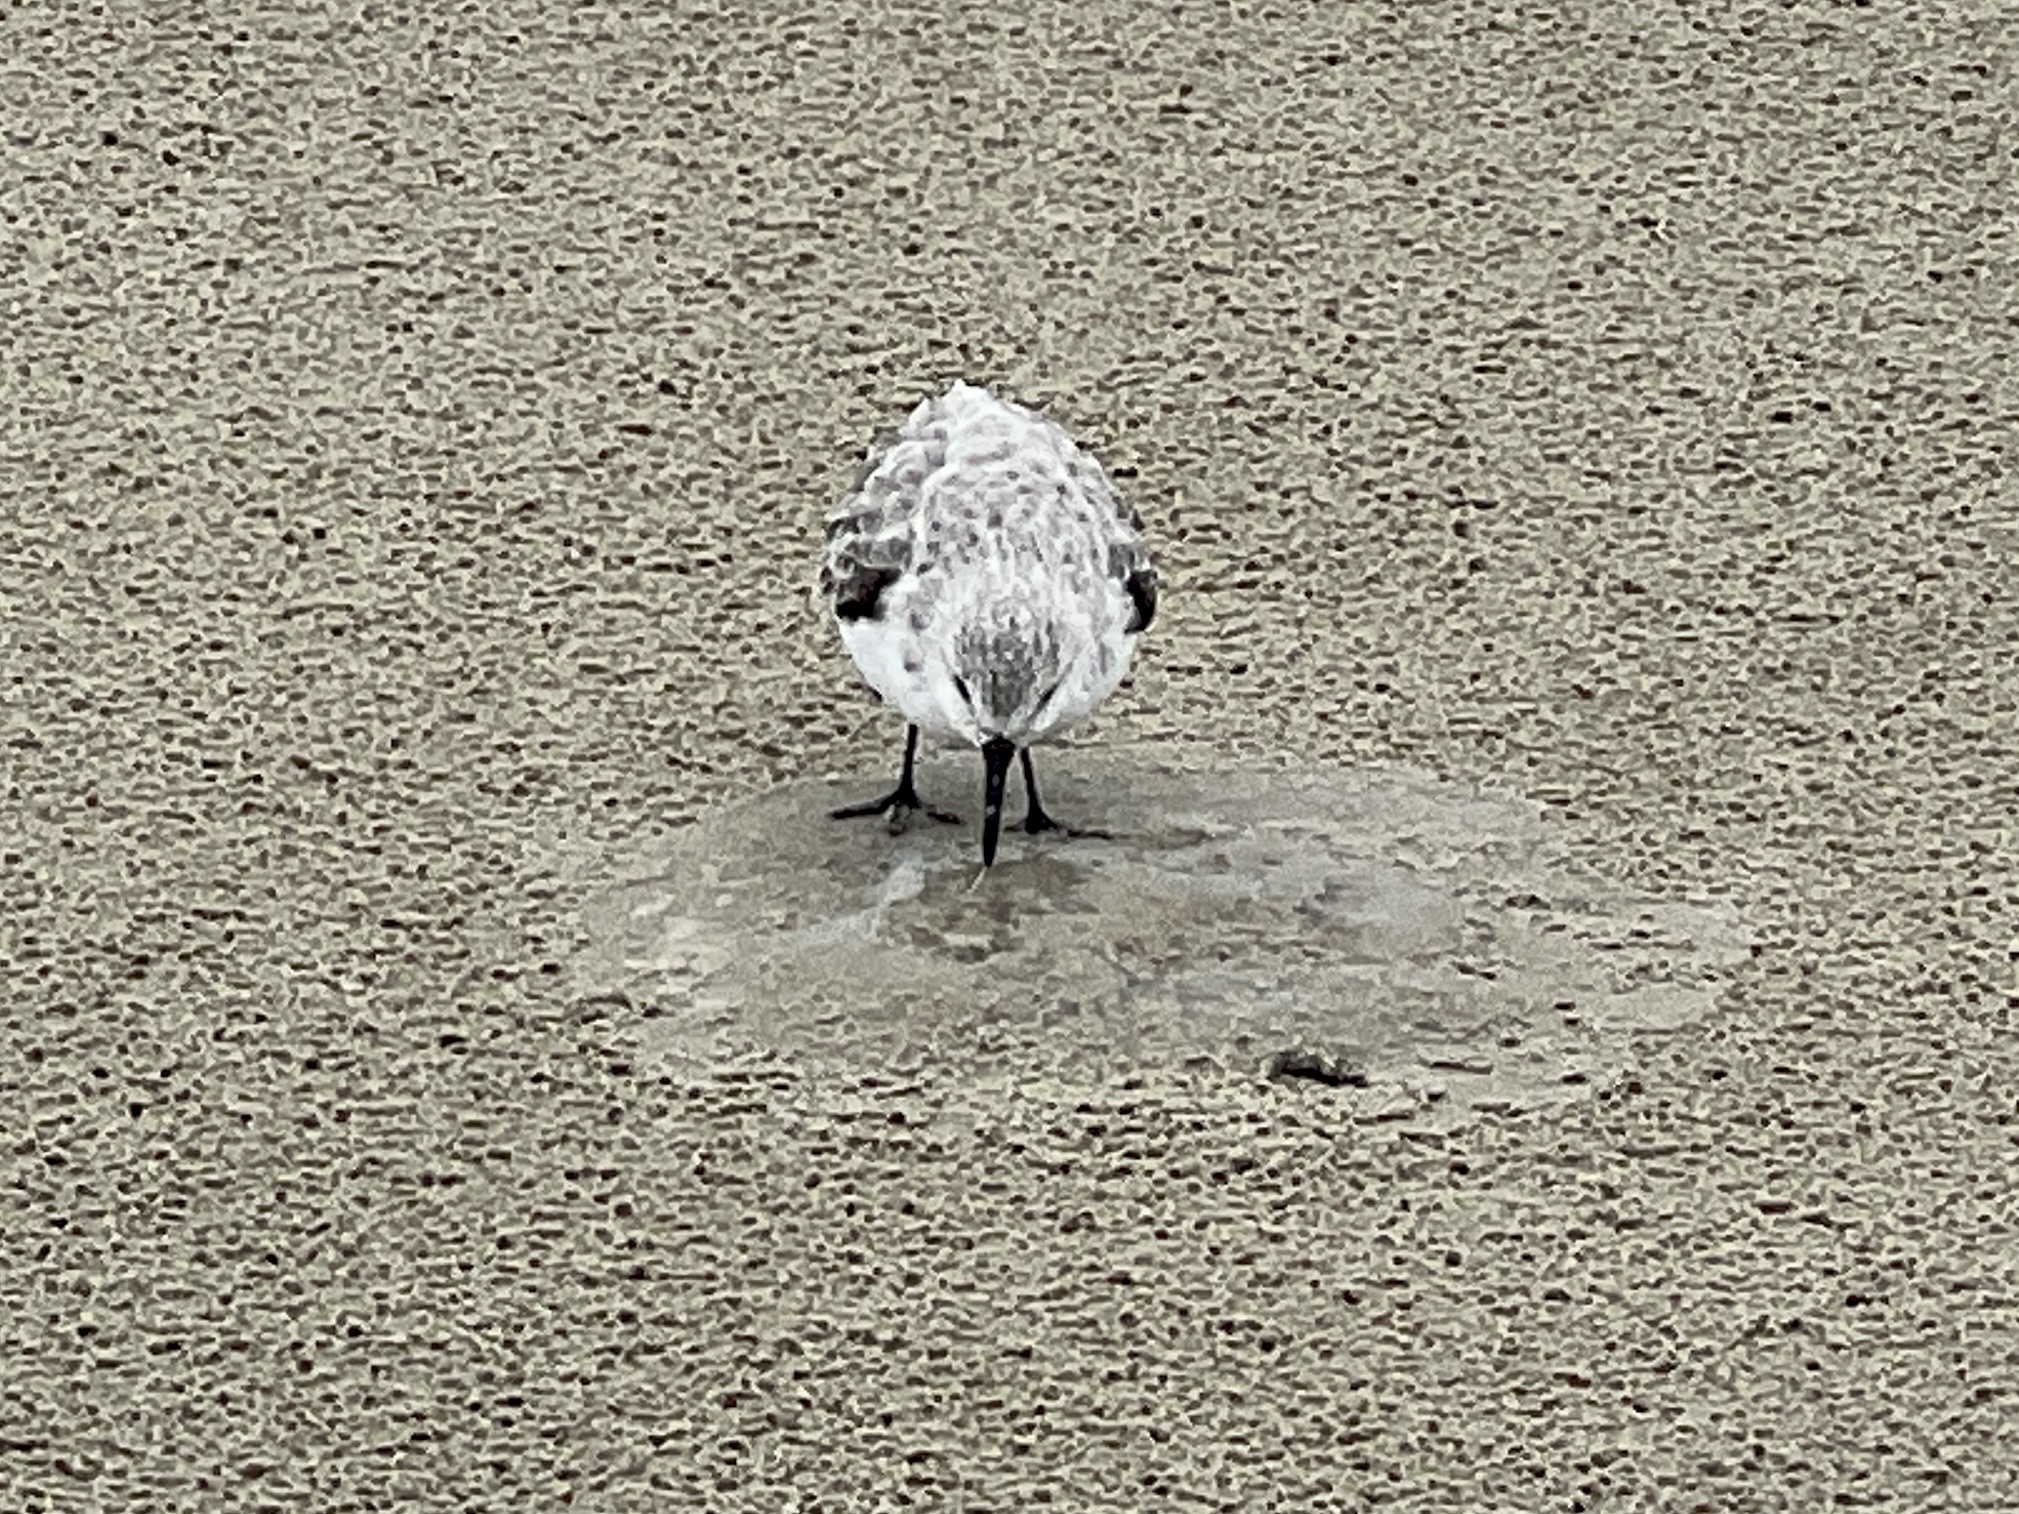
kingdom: Animalia
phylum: Chordata
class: Aves
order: Charadriiformes
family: Scolopacidae
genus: Calidris
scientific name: Calidris alba
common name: Sanderling
